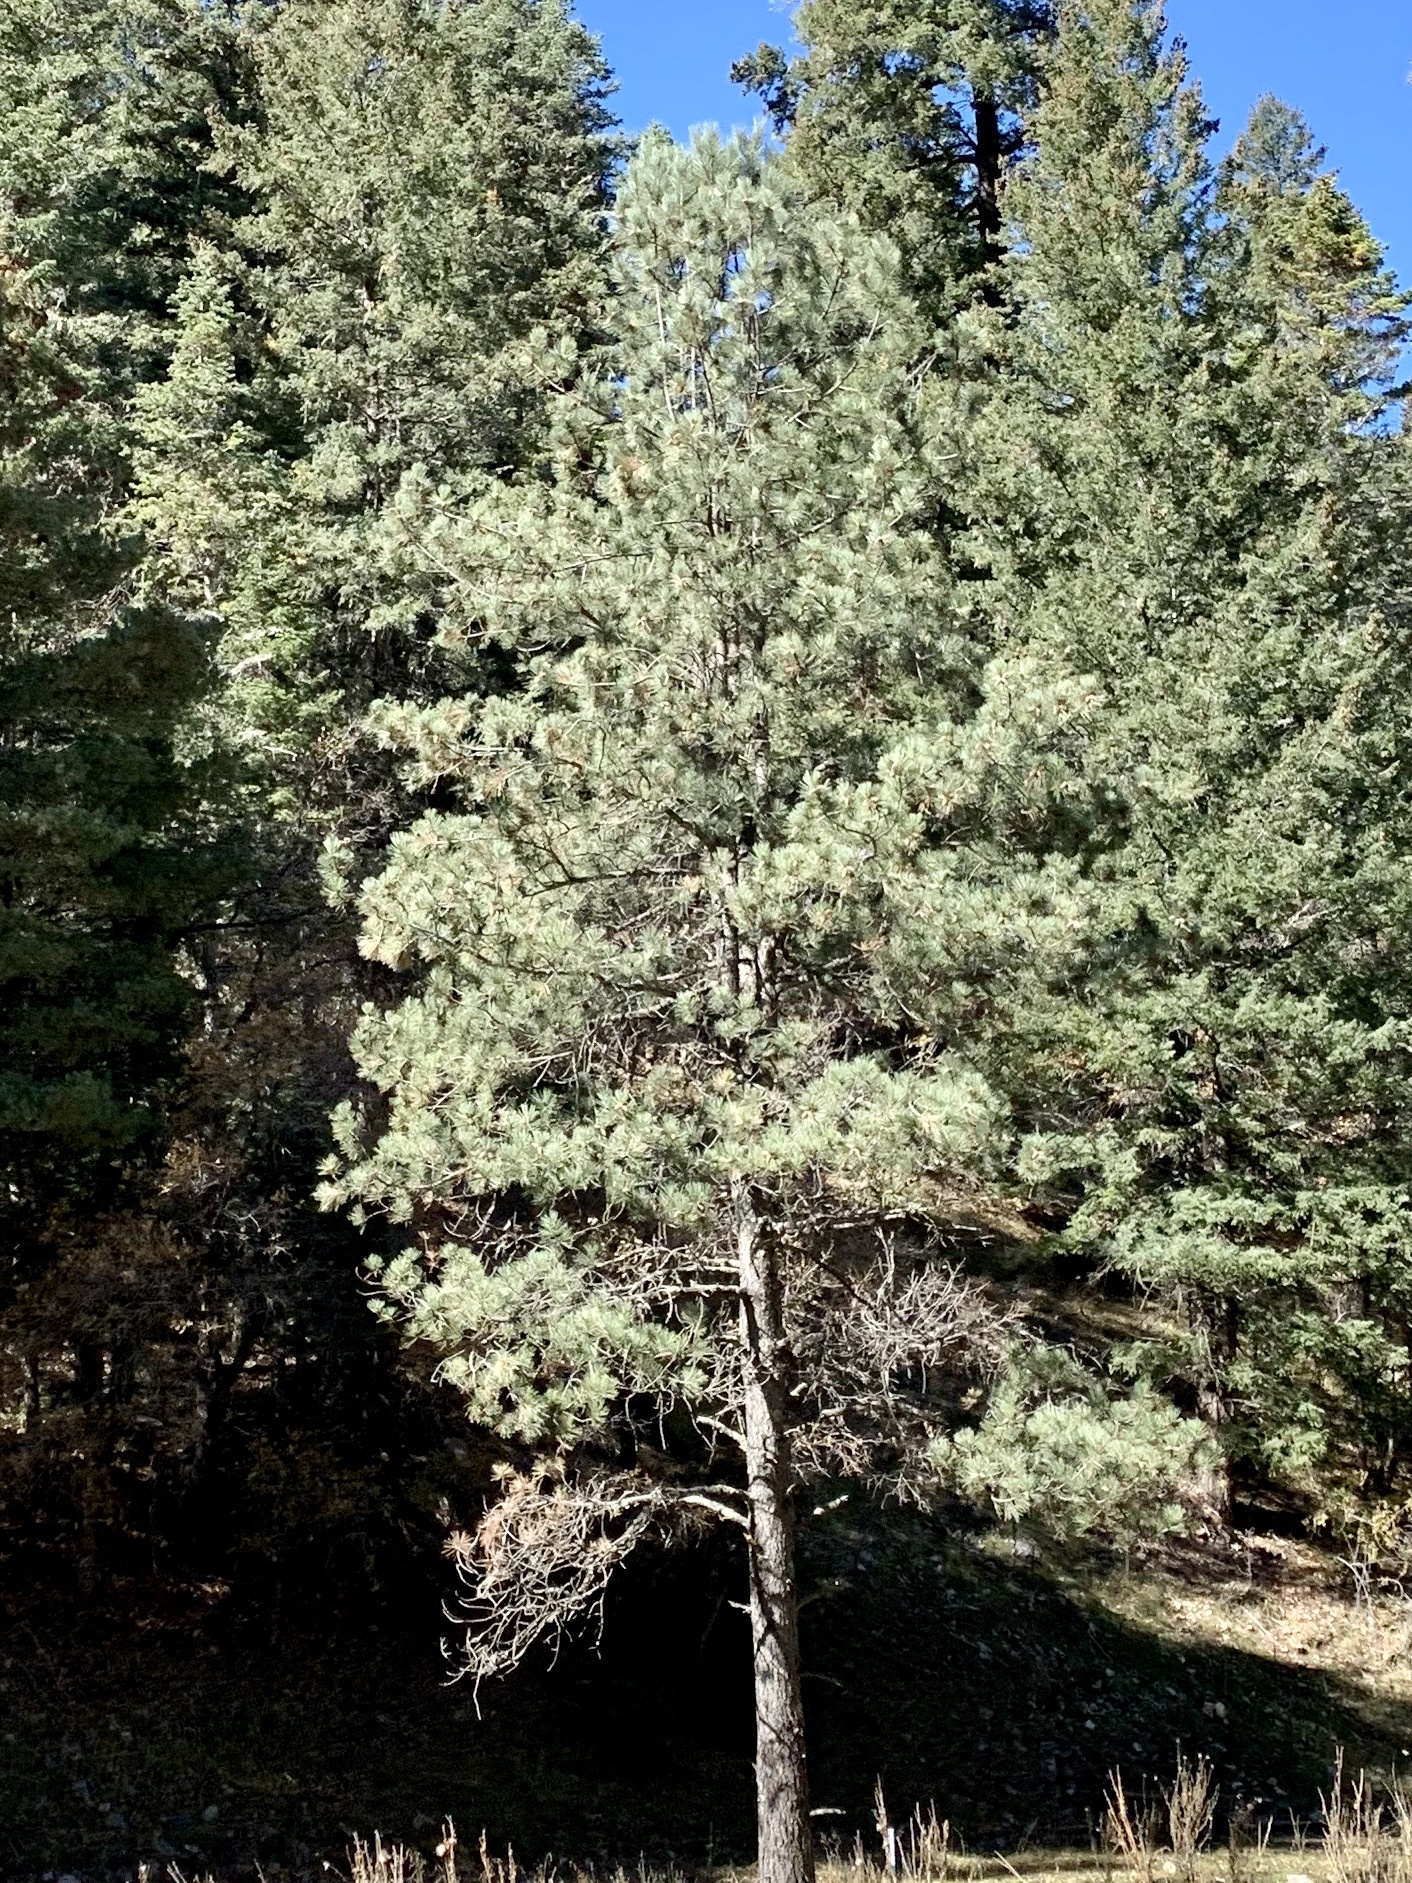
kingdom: Plantae
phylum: Tracheophyta
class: Pinopsida
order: Pinales
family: Pinaceae
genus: Pinus
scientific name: Pinus ponderosa
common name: Western yellow-pine
